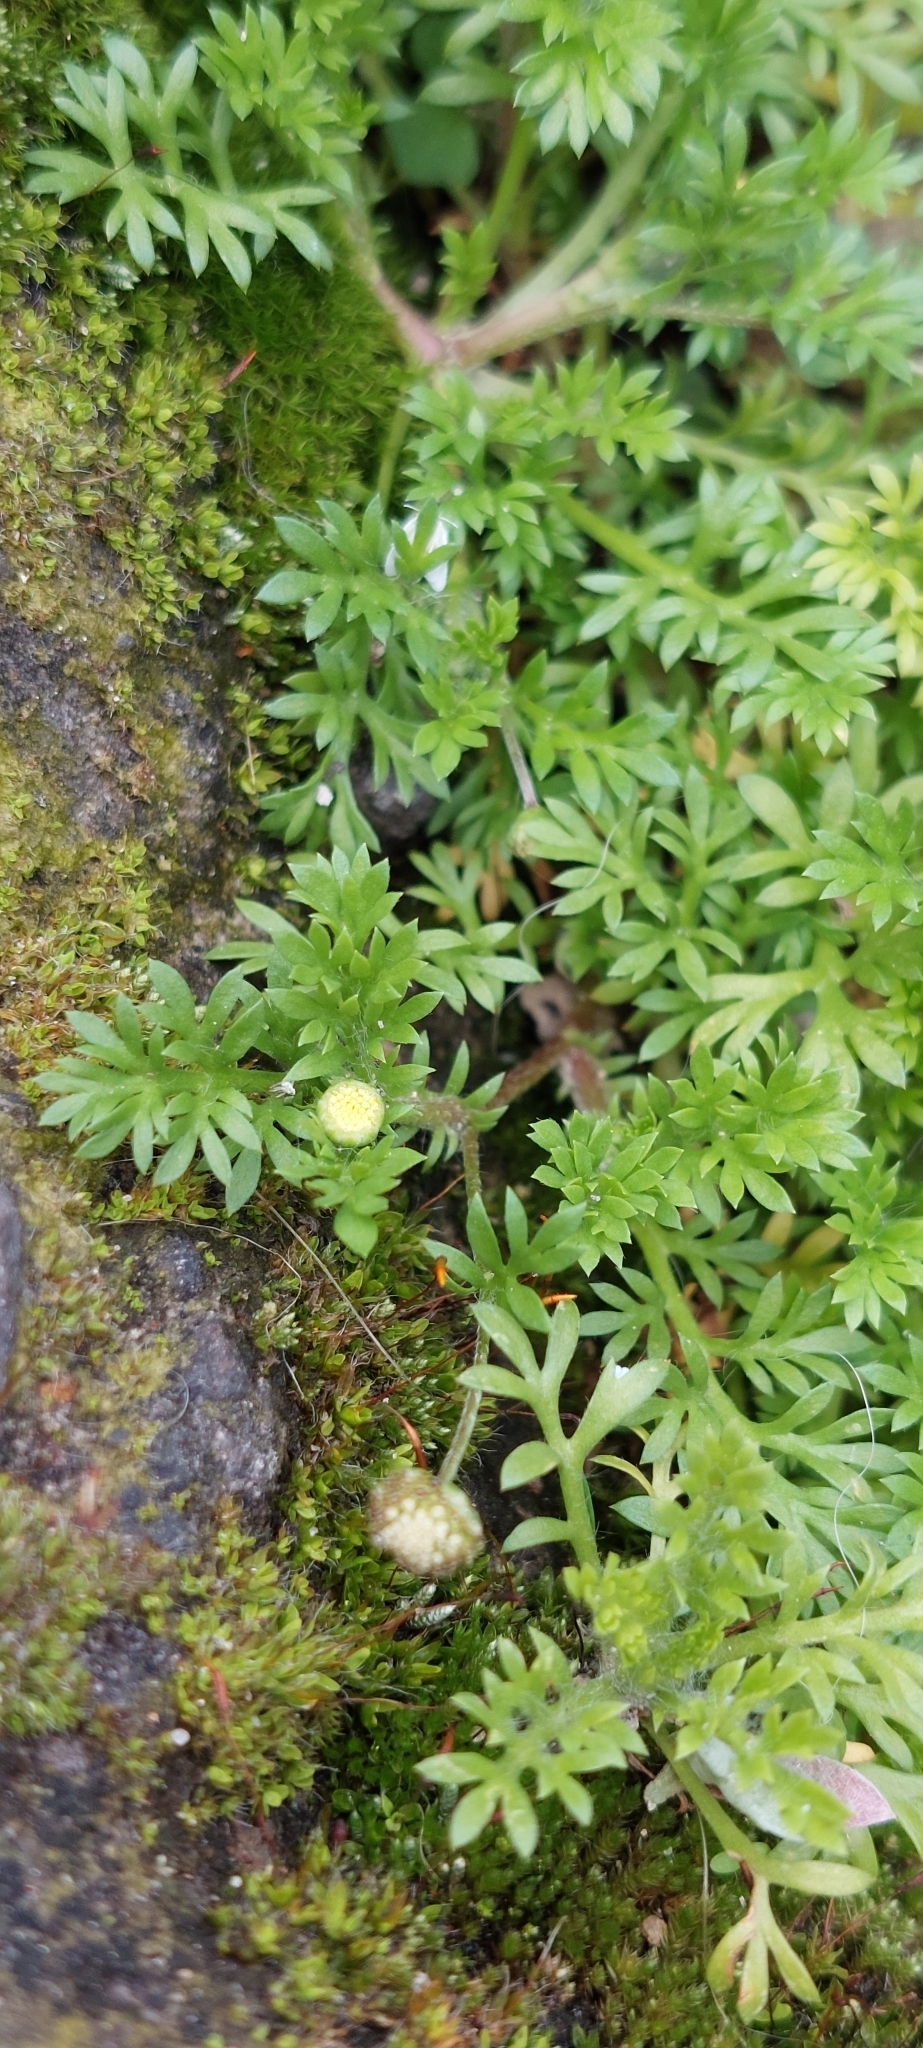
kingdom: Plantae
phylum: Tracheophyta
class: Magnoliopsida
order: Asterales
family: Asteraceae
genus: Cotula
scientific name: Cotula australis
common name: Australian waterbuttons
